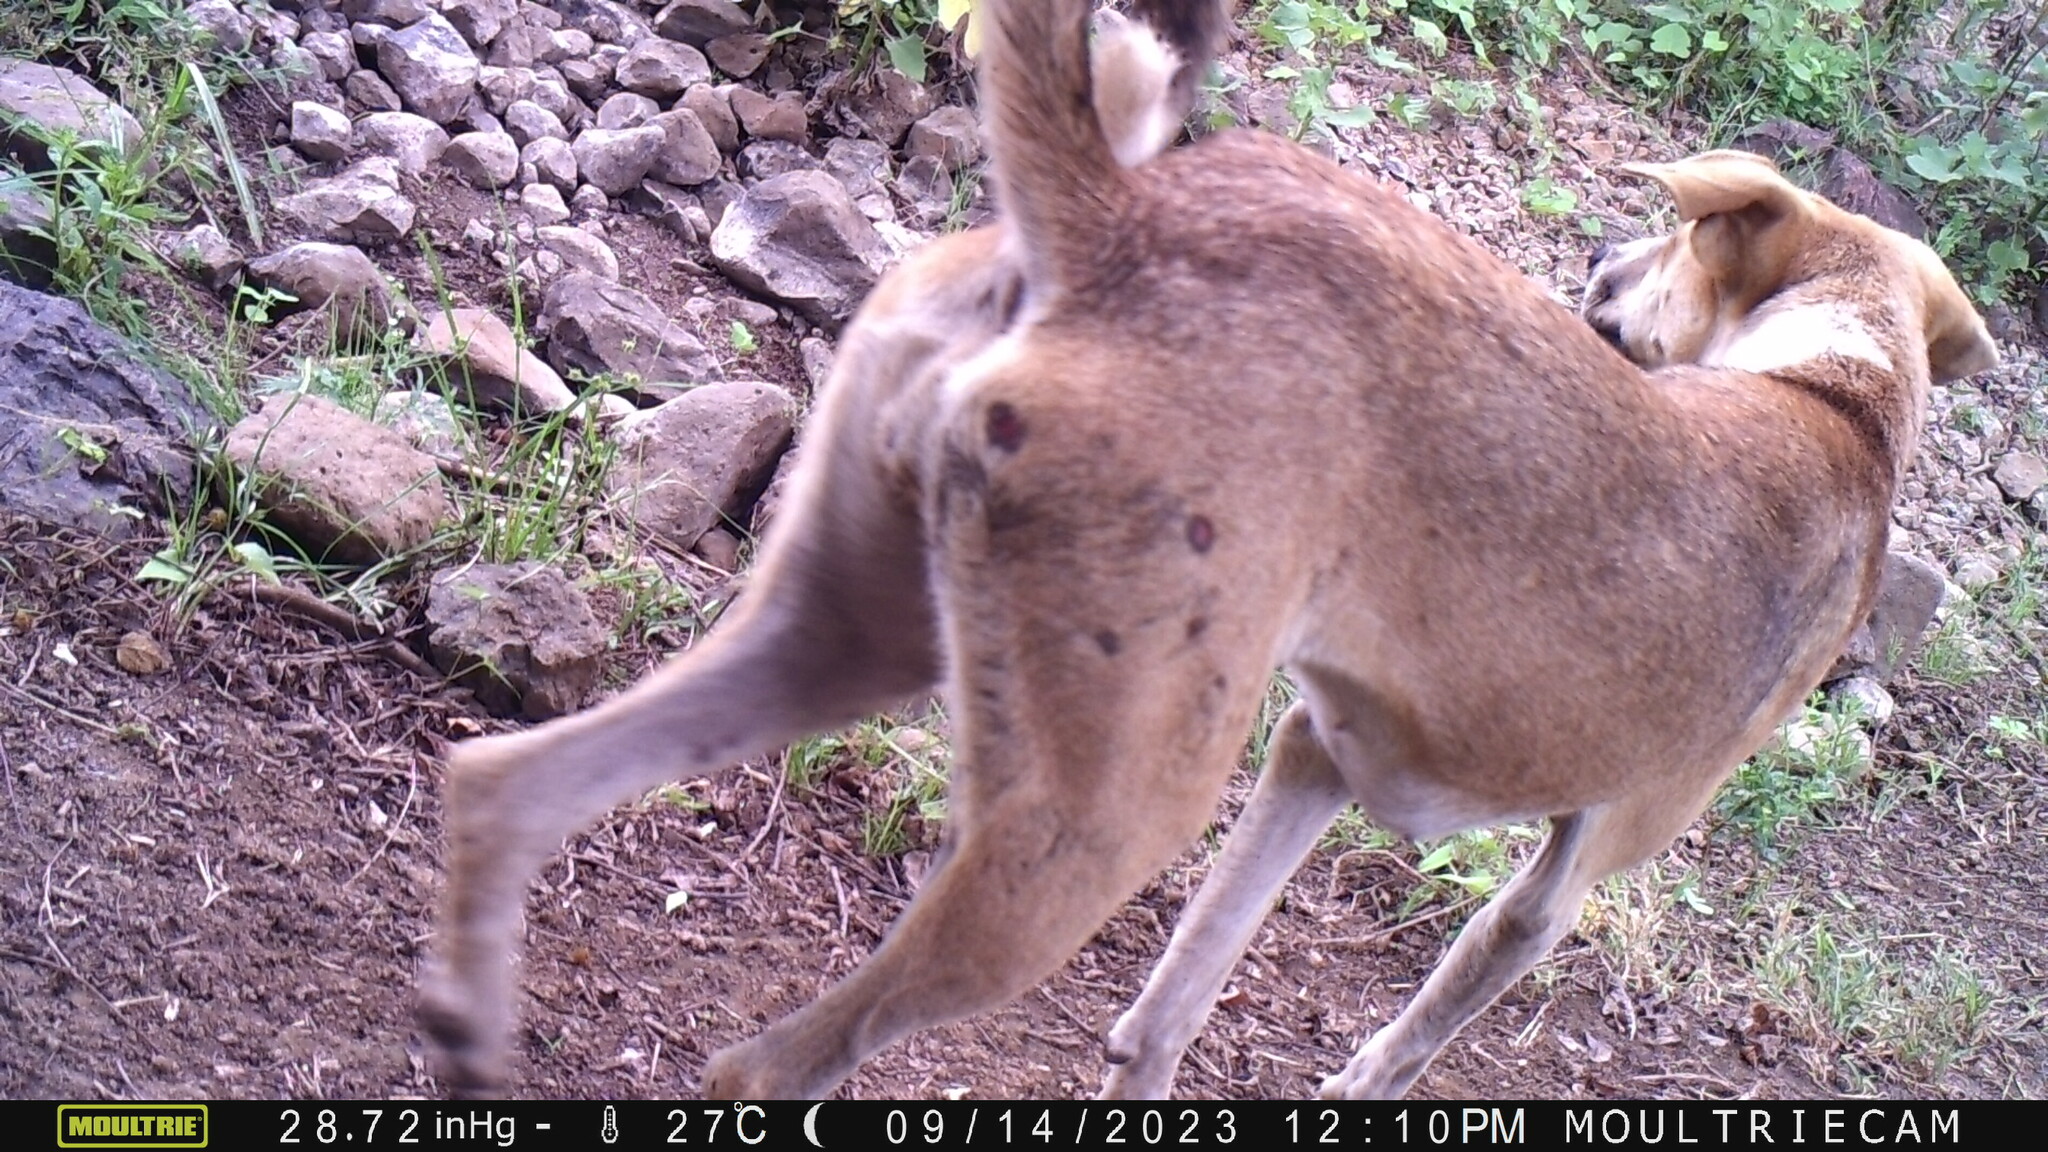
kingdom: Animalia
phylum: Chordata
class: Mammalia
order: Carnivora
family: Canidae
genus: Canis
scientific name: Canis lupus
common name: Gray wolf
